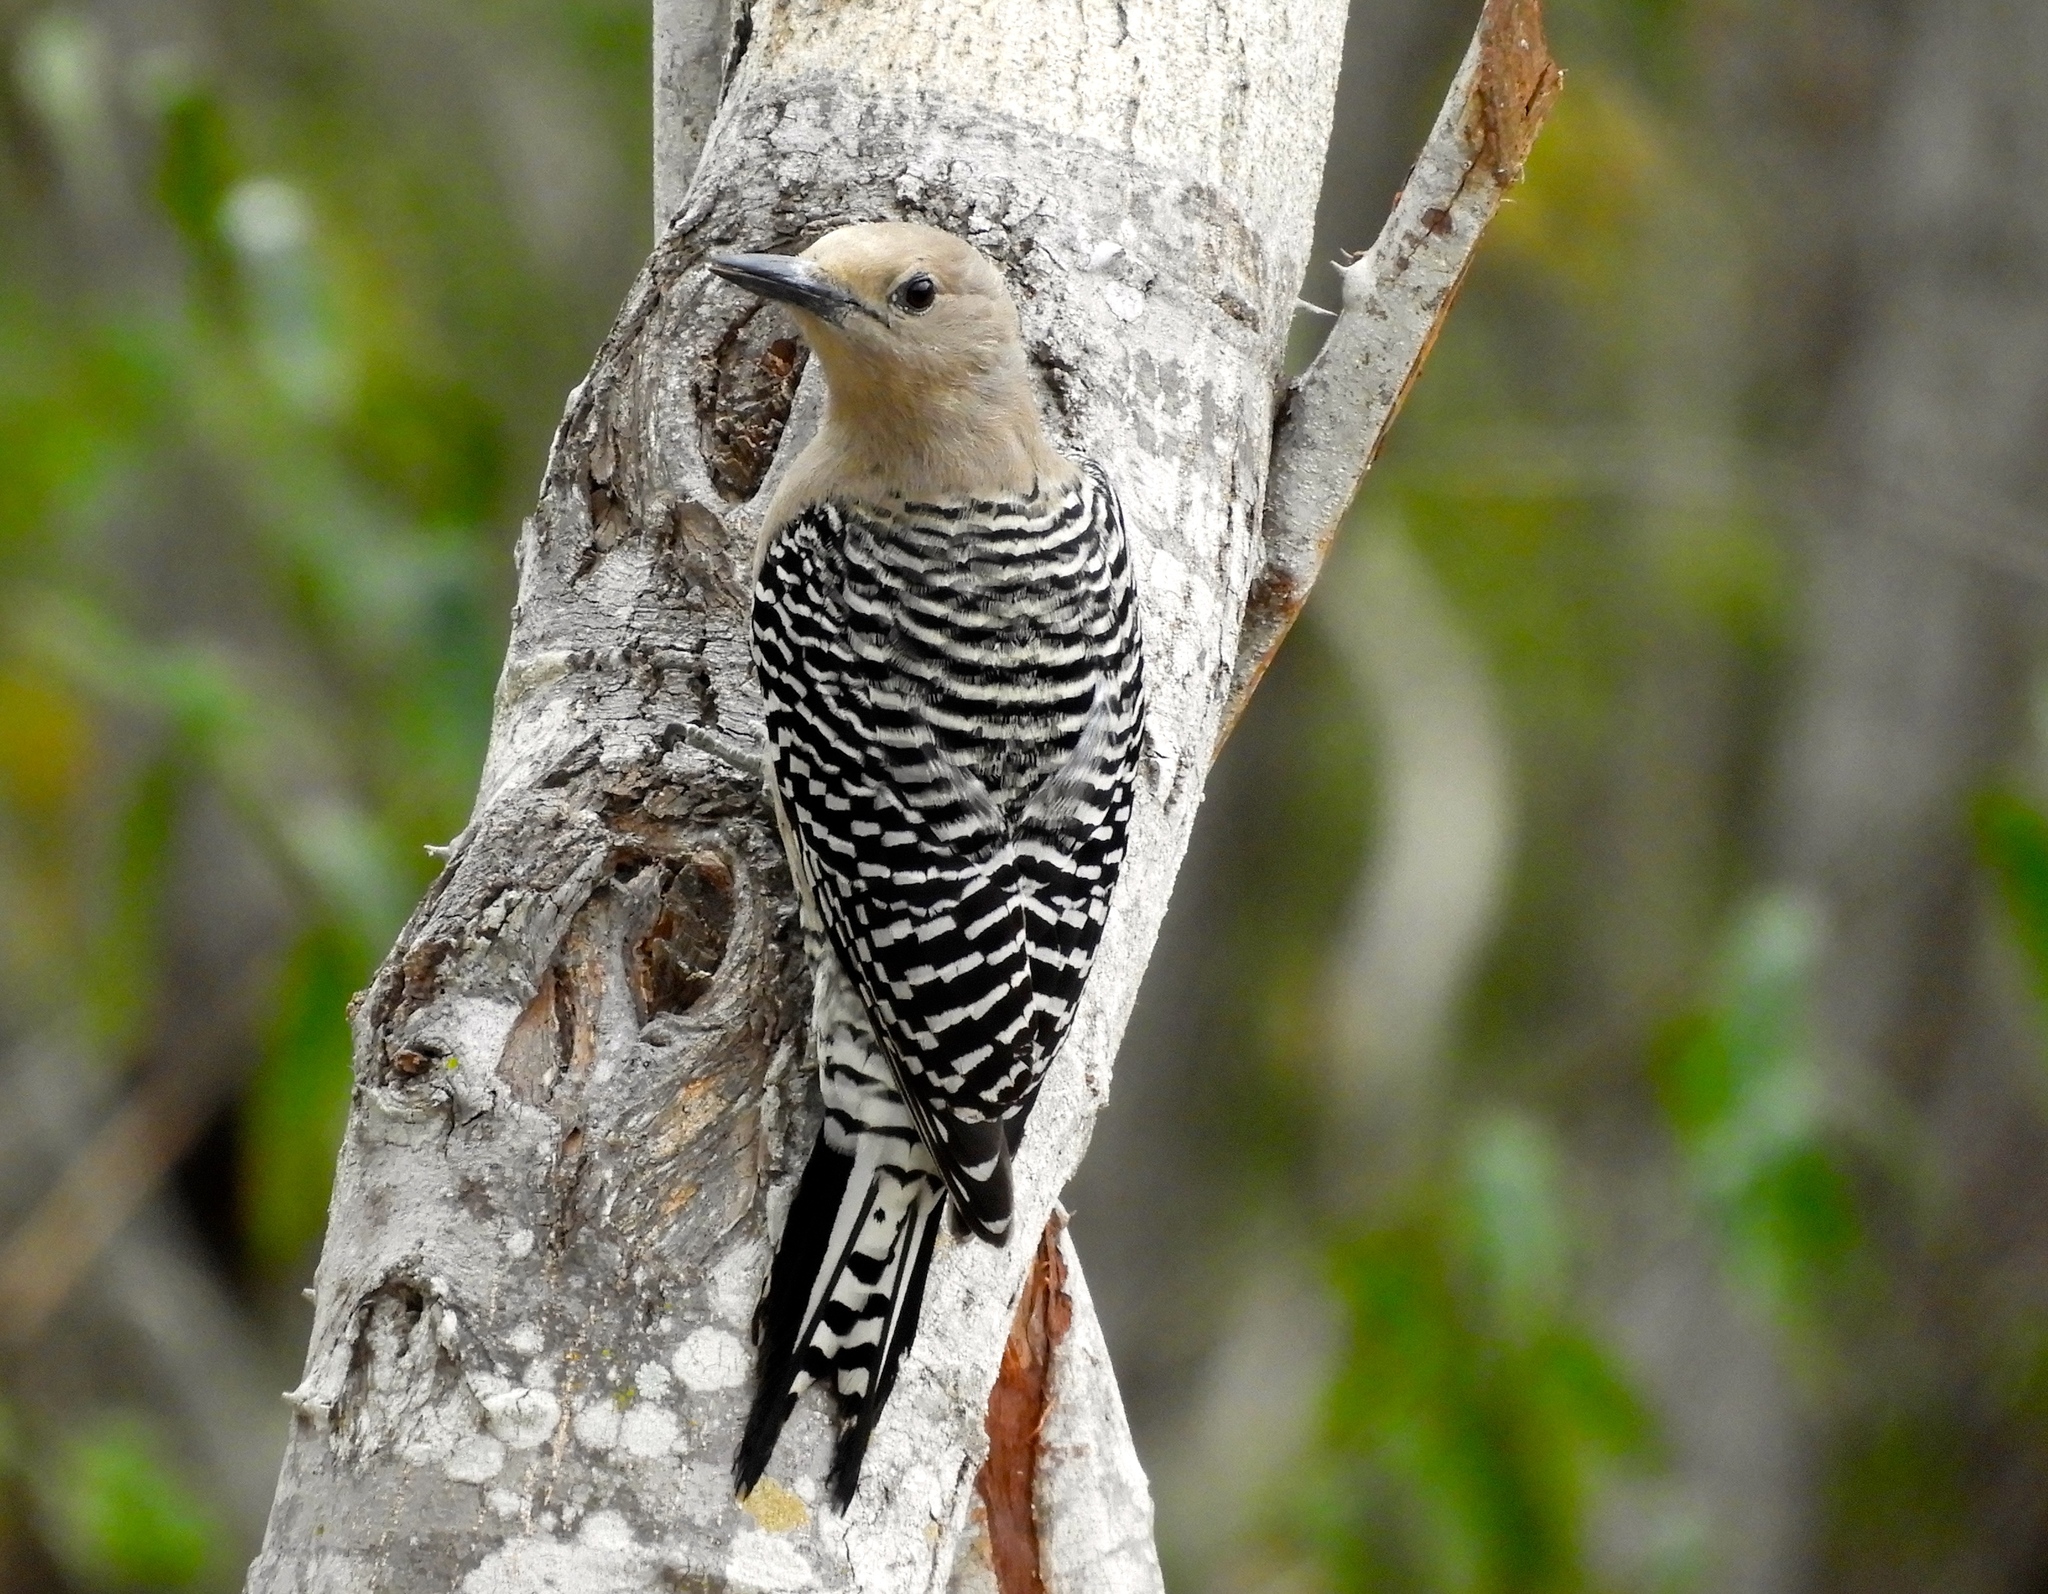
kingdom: Animalia
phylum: Chordata
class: Aves
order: Piciformes
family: Picidae
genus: Melanerpes
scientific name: Melanerpes uropygialis
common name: Gila woodpecker
